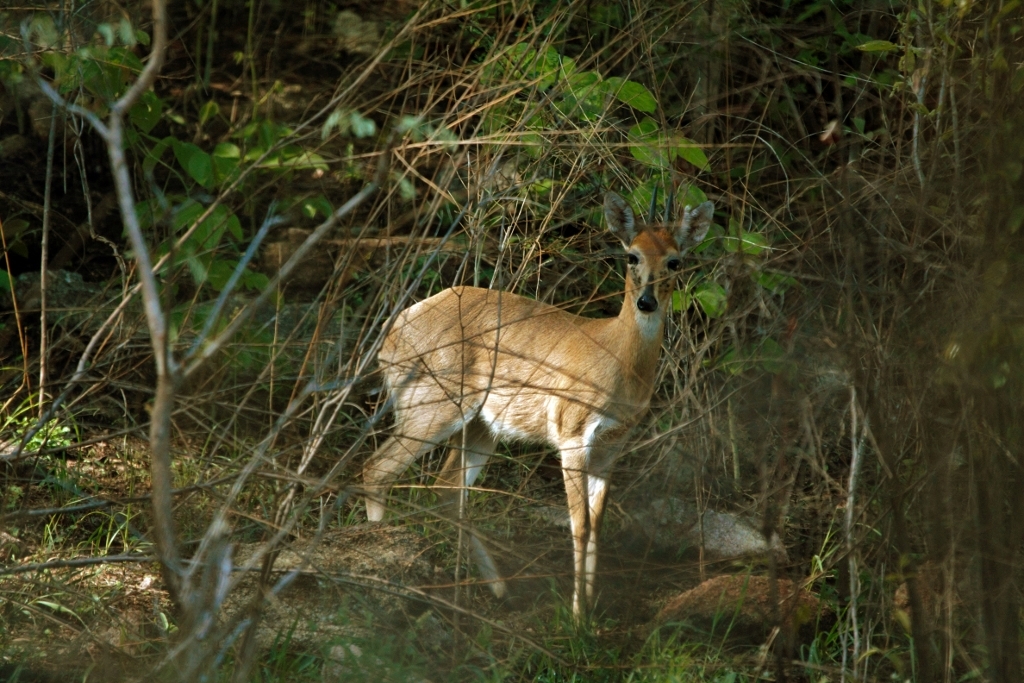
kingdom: Animalia
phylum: Chordata
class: Mammalia
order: Artiodactyla
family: Bovidae
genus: Sylvicapra
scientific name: Sylvicapra grimmia
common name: Bush duiker
